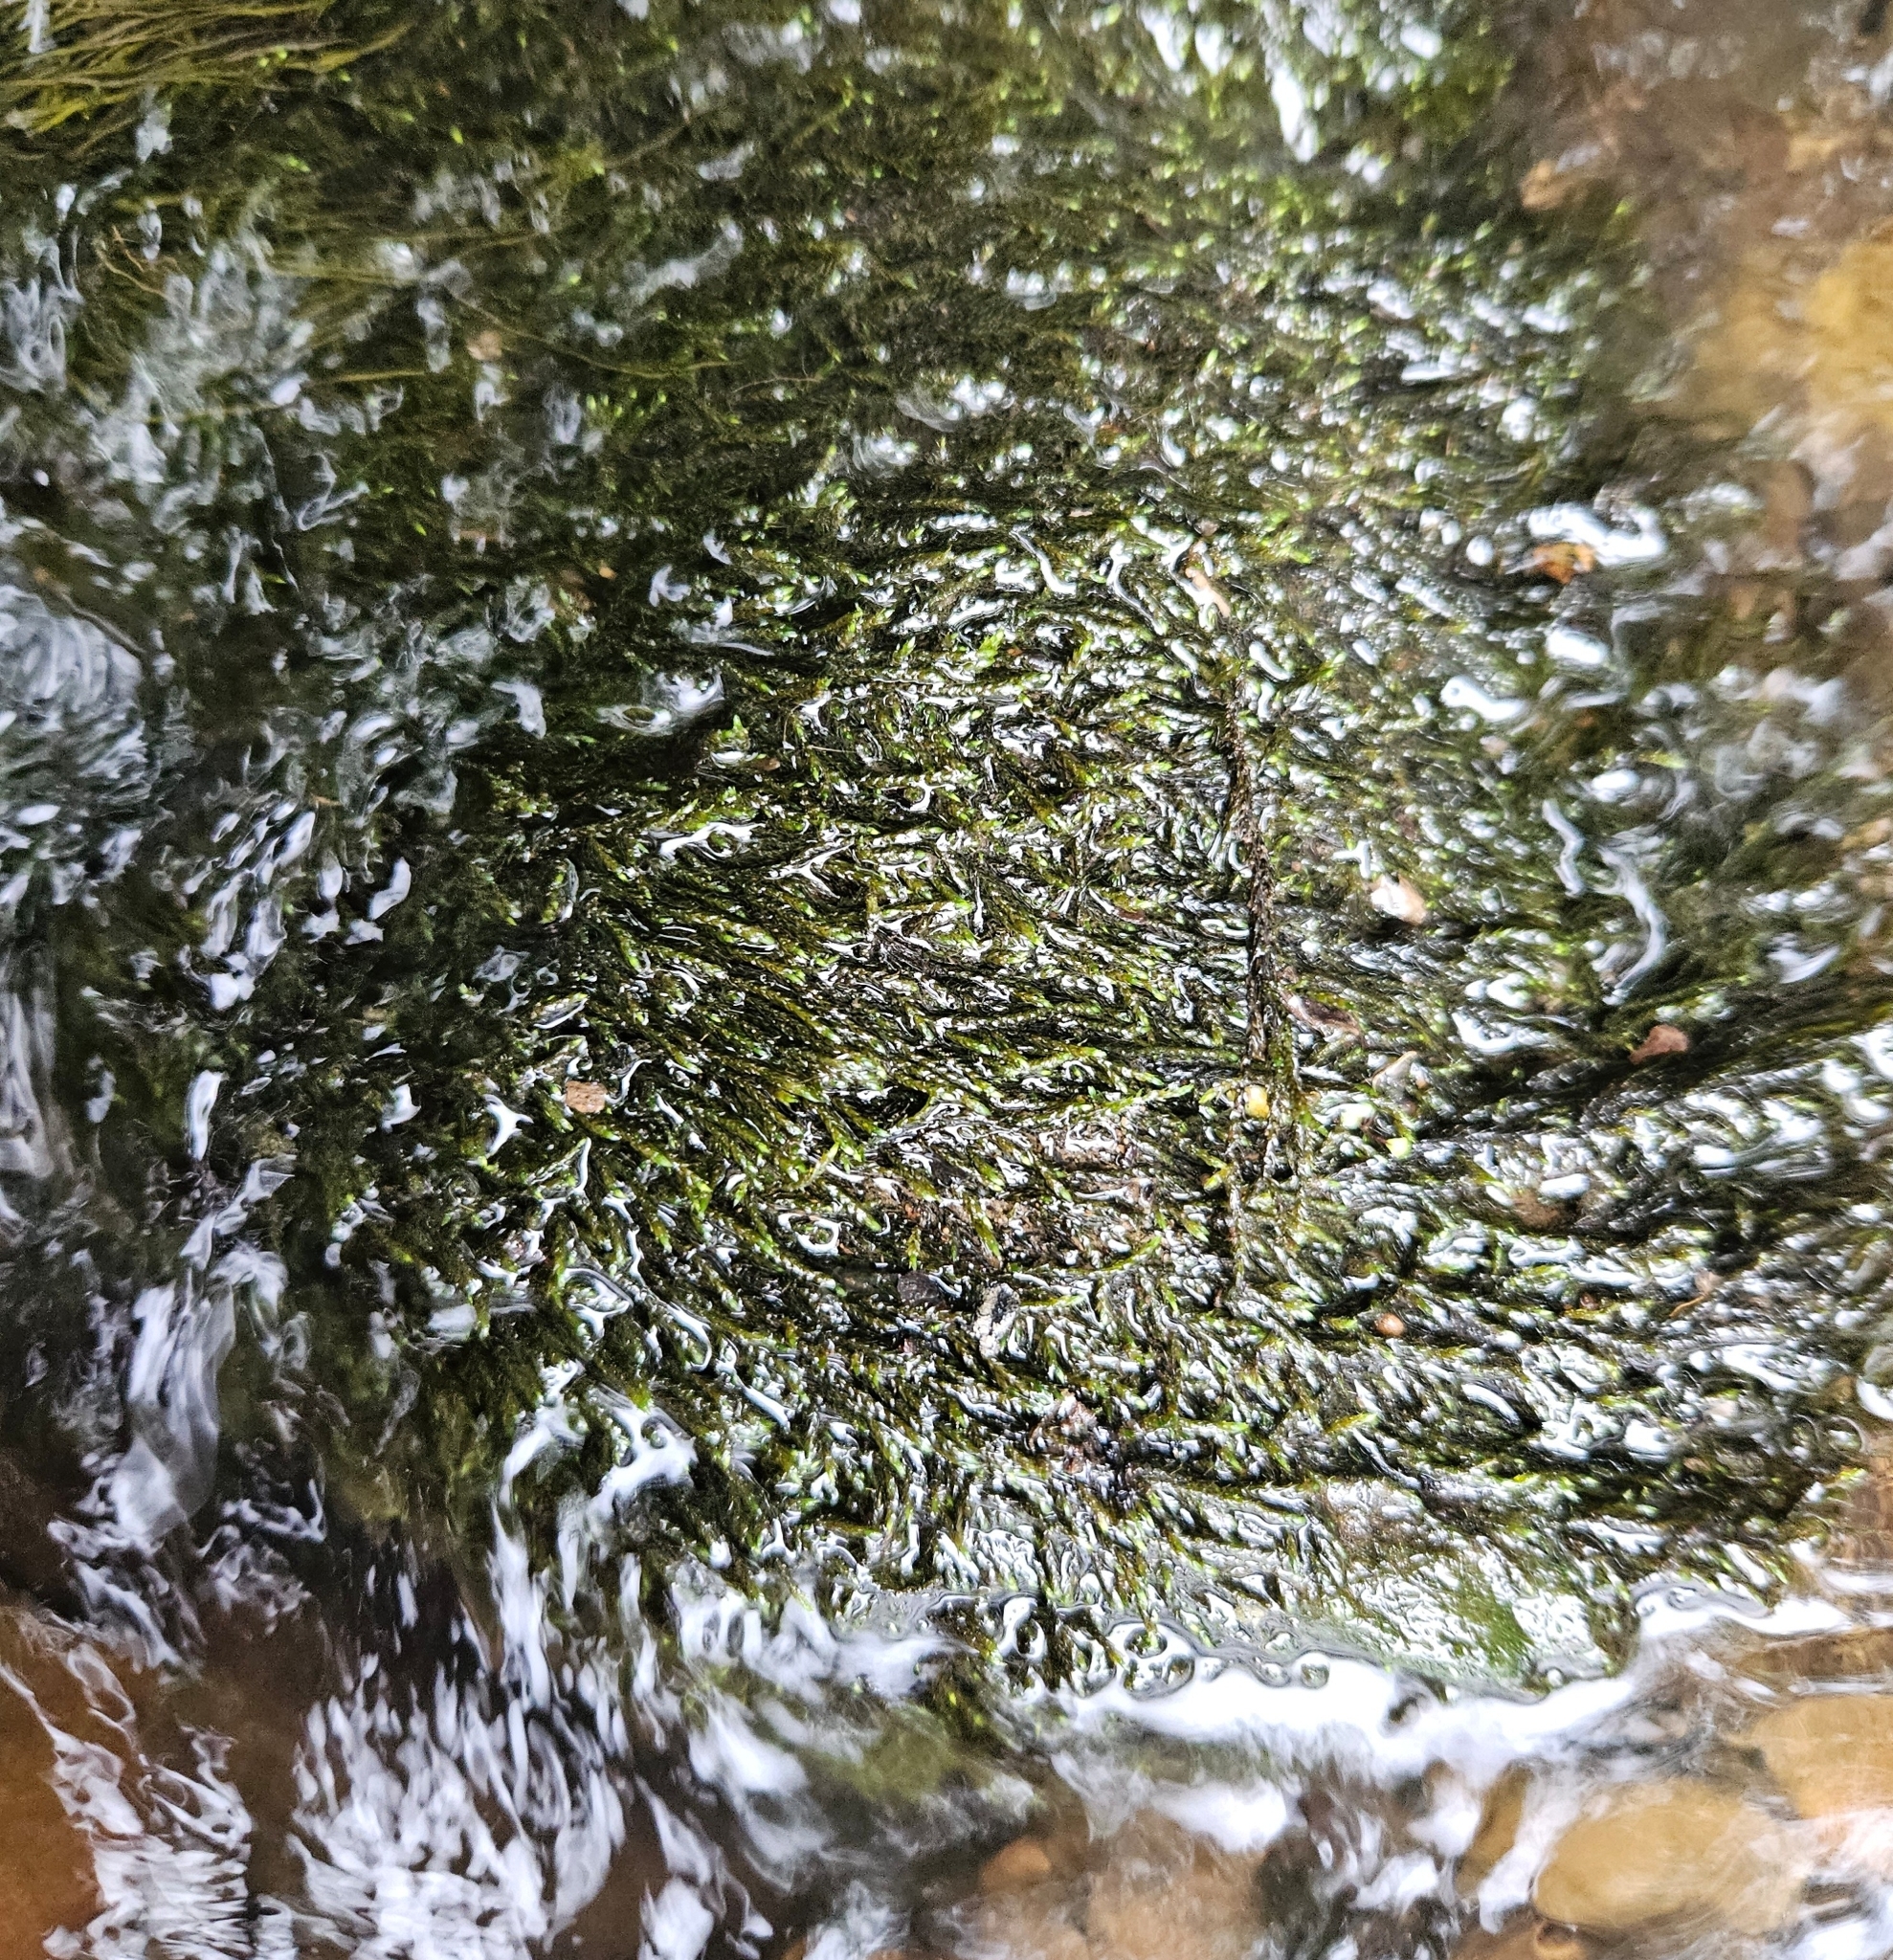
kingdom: Plantae
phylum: Bryophyta
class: Bryopsida
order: Hypnales
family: Amblystegiaceae
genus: Hygroamblystegium
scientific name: Hygroamblystegium fluviatile
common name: Brook-side feather-moss
